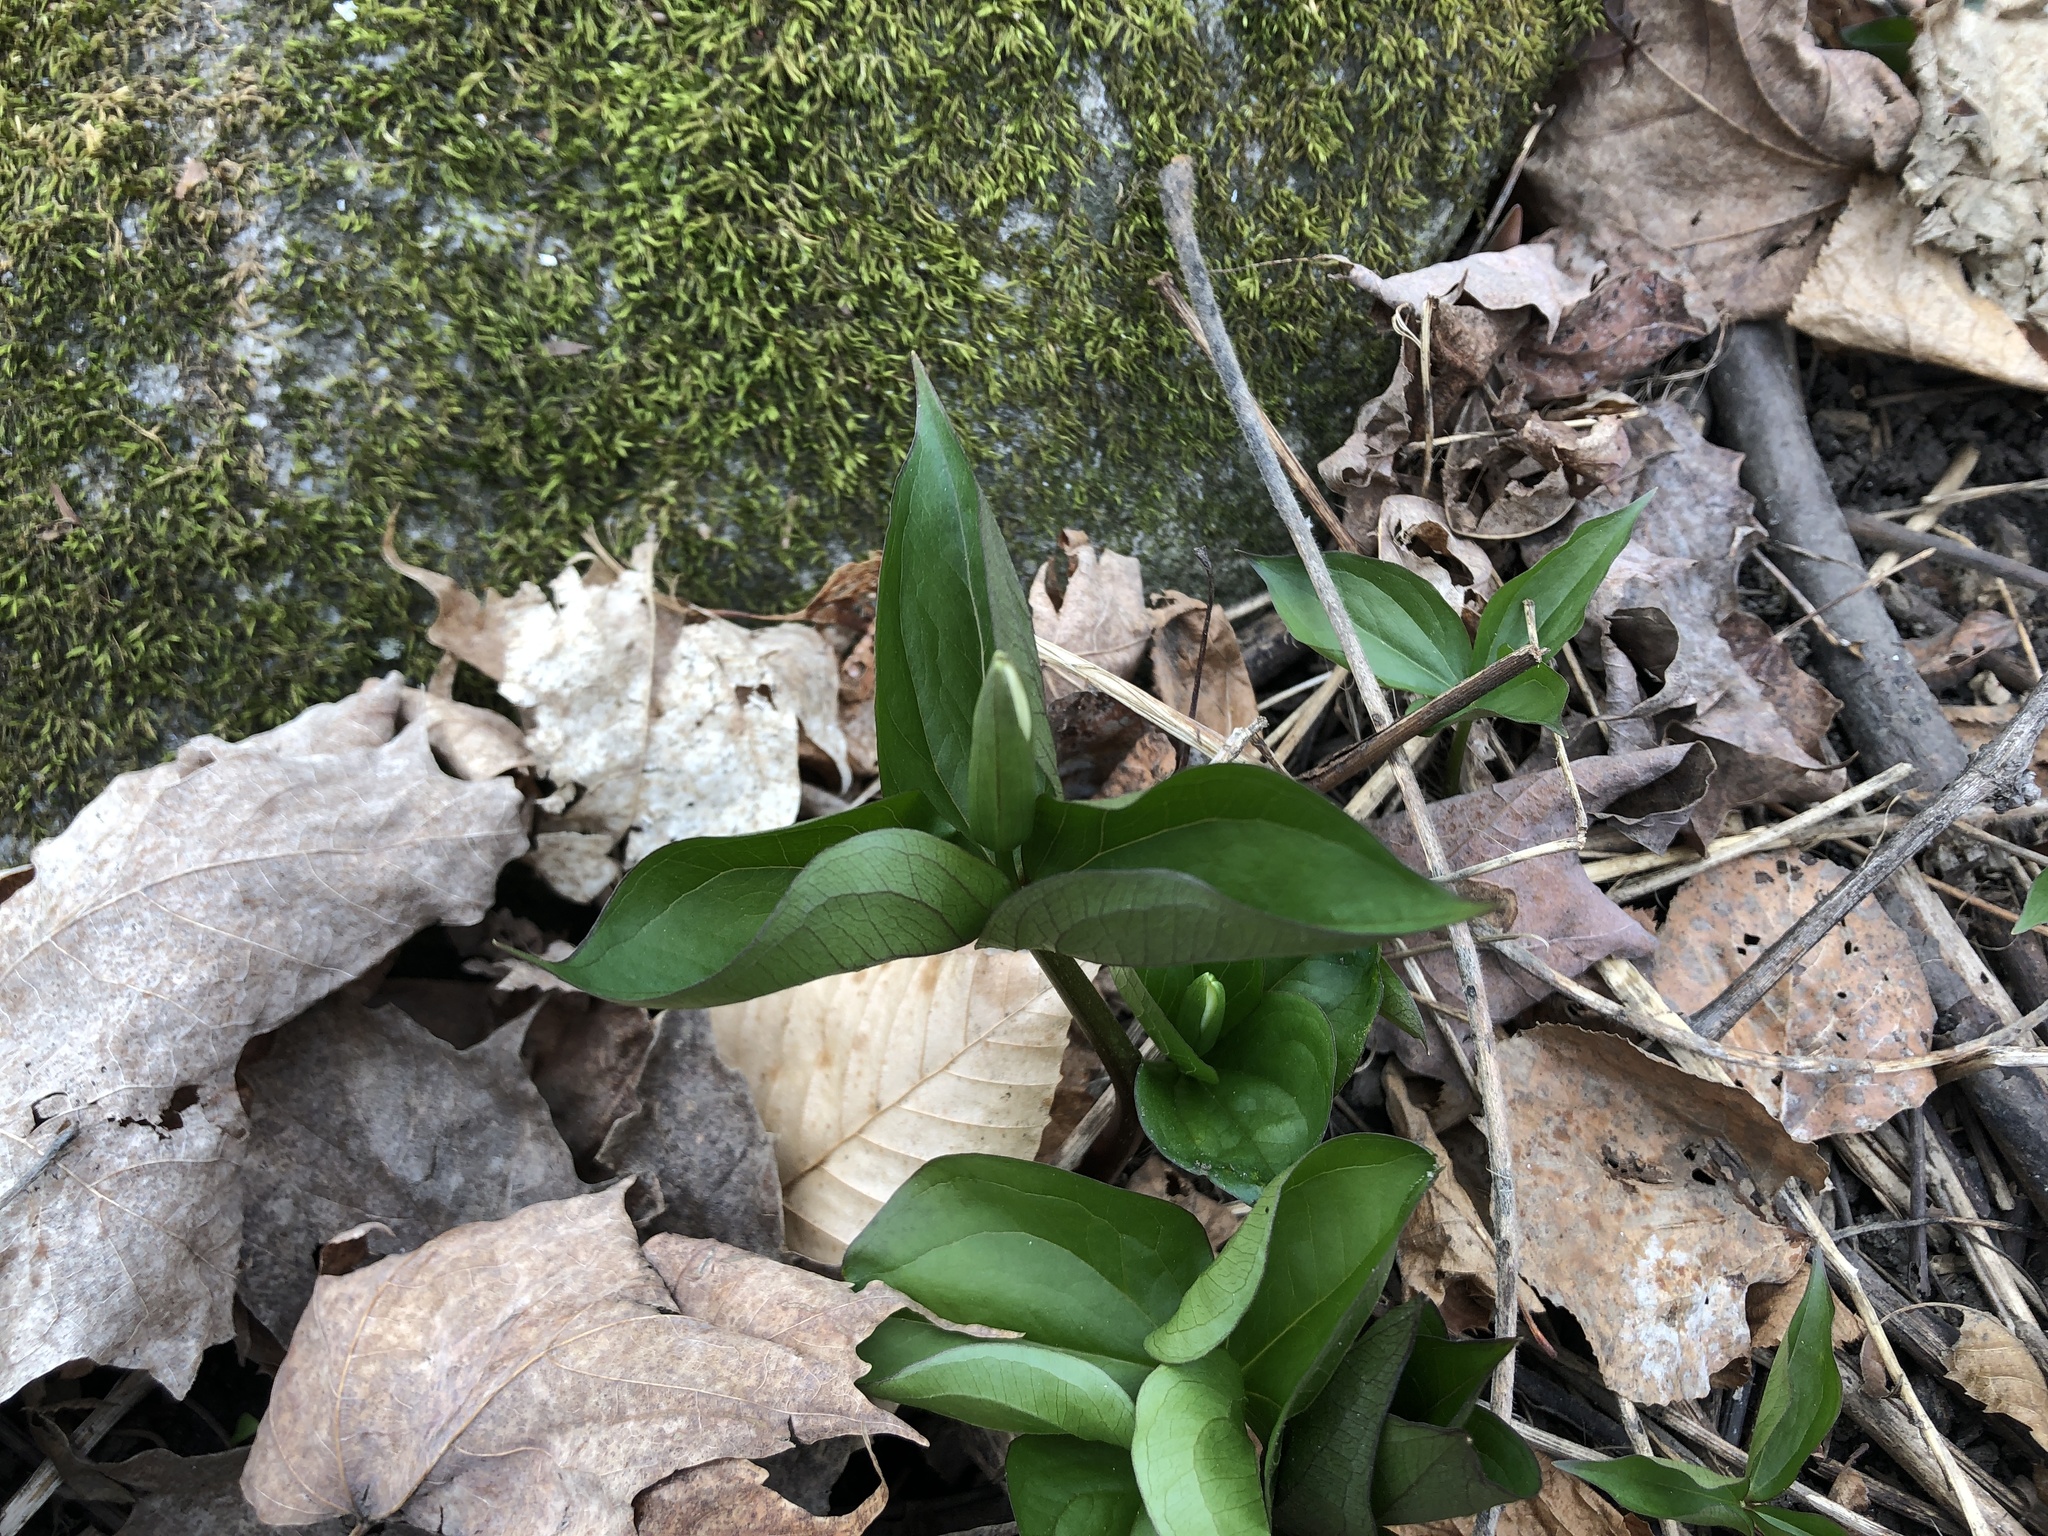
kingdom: Plantae
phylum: Tracheophyta
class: Liliopsida
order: Liliales
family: Melanthiaceae
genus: Trillium
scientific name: Trillium grandiflorum
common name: Great white trillium
